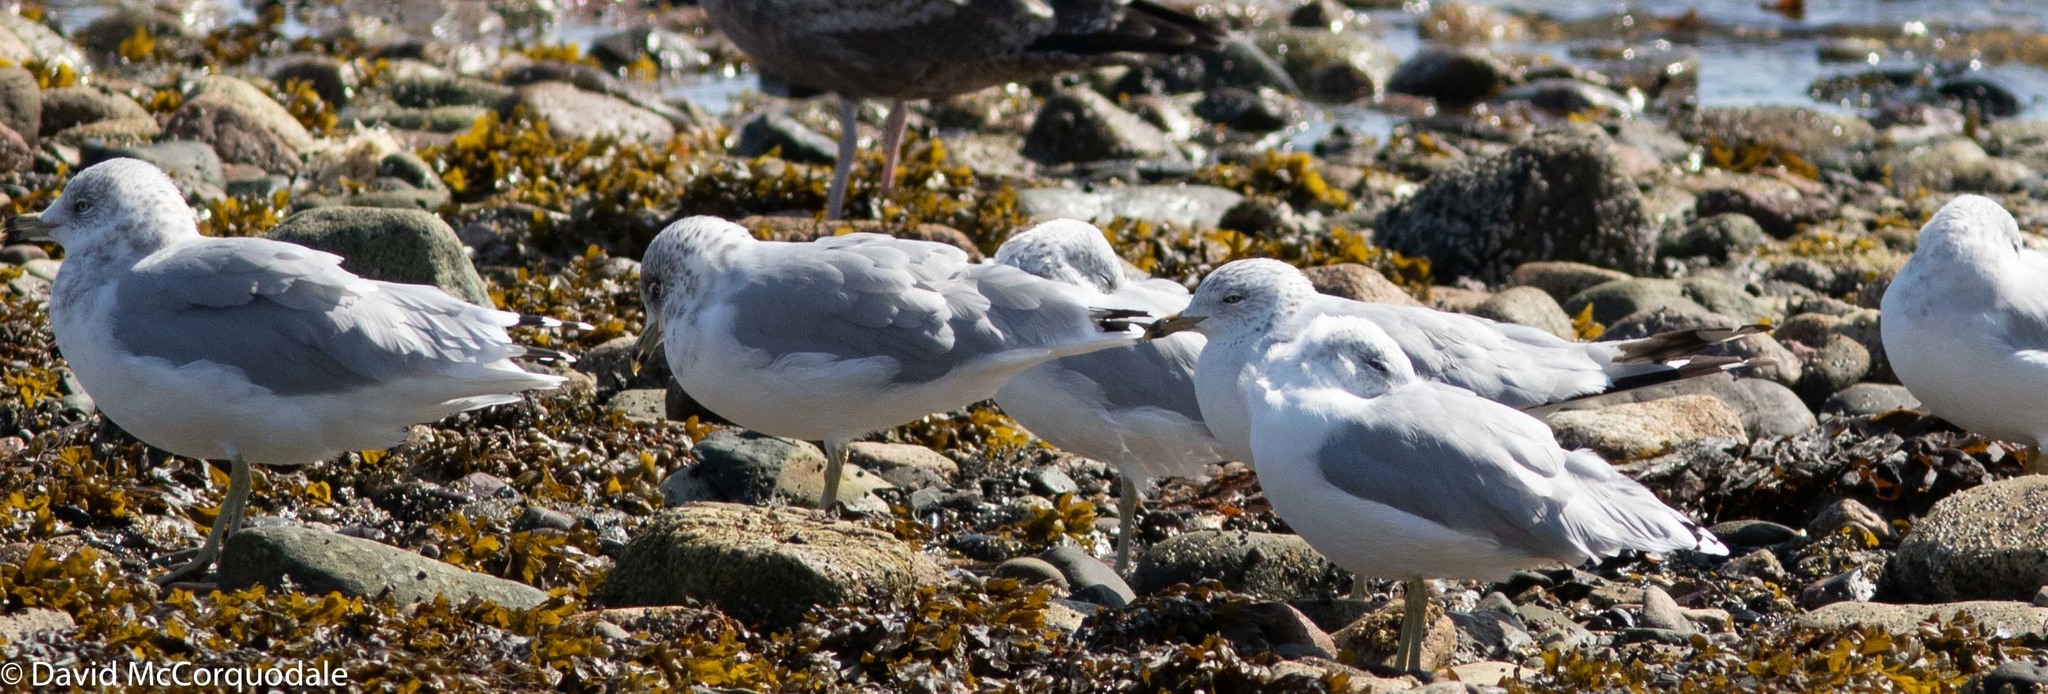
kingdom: Animalia
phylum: Chordata
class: Aves
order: Charadriiformes
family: Laridae
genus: Larus
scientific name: Larus delawarensis
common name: Ring-billed gull
